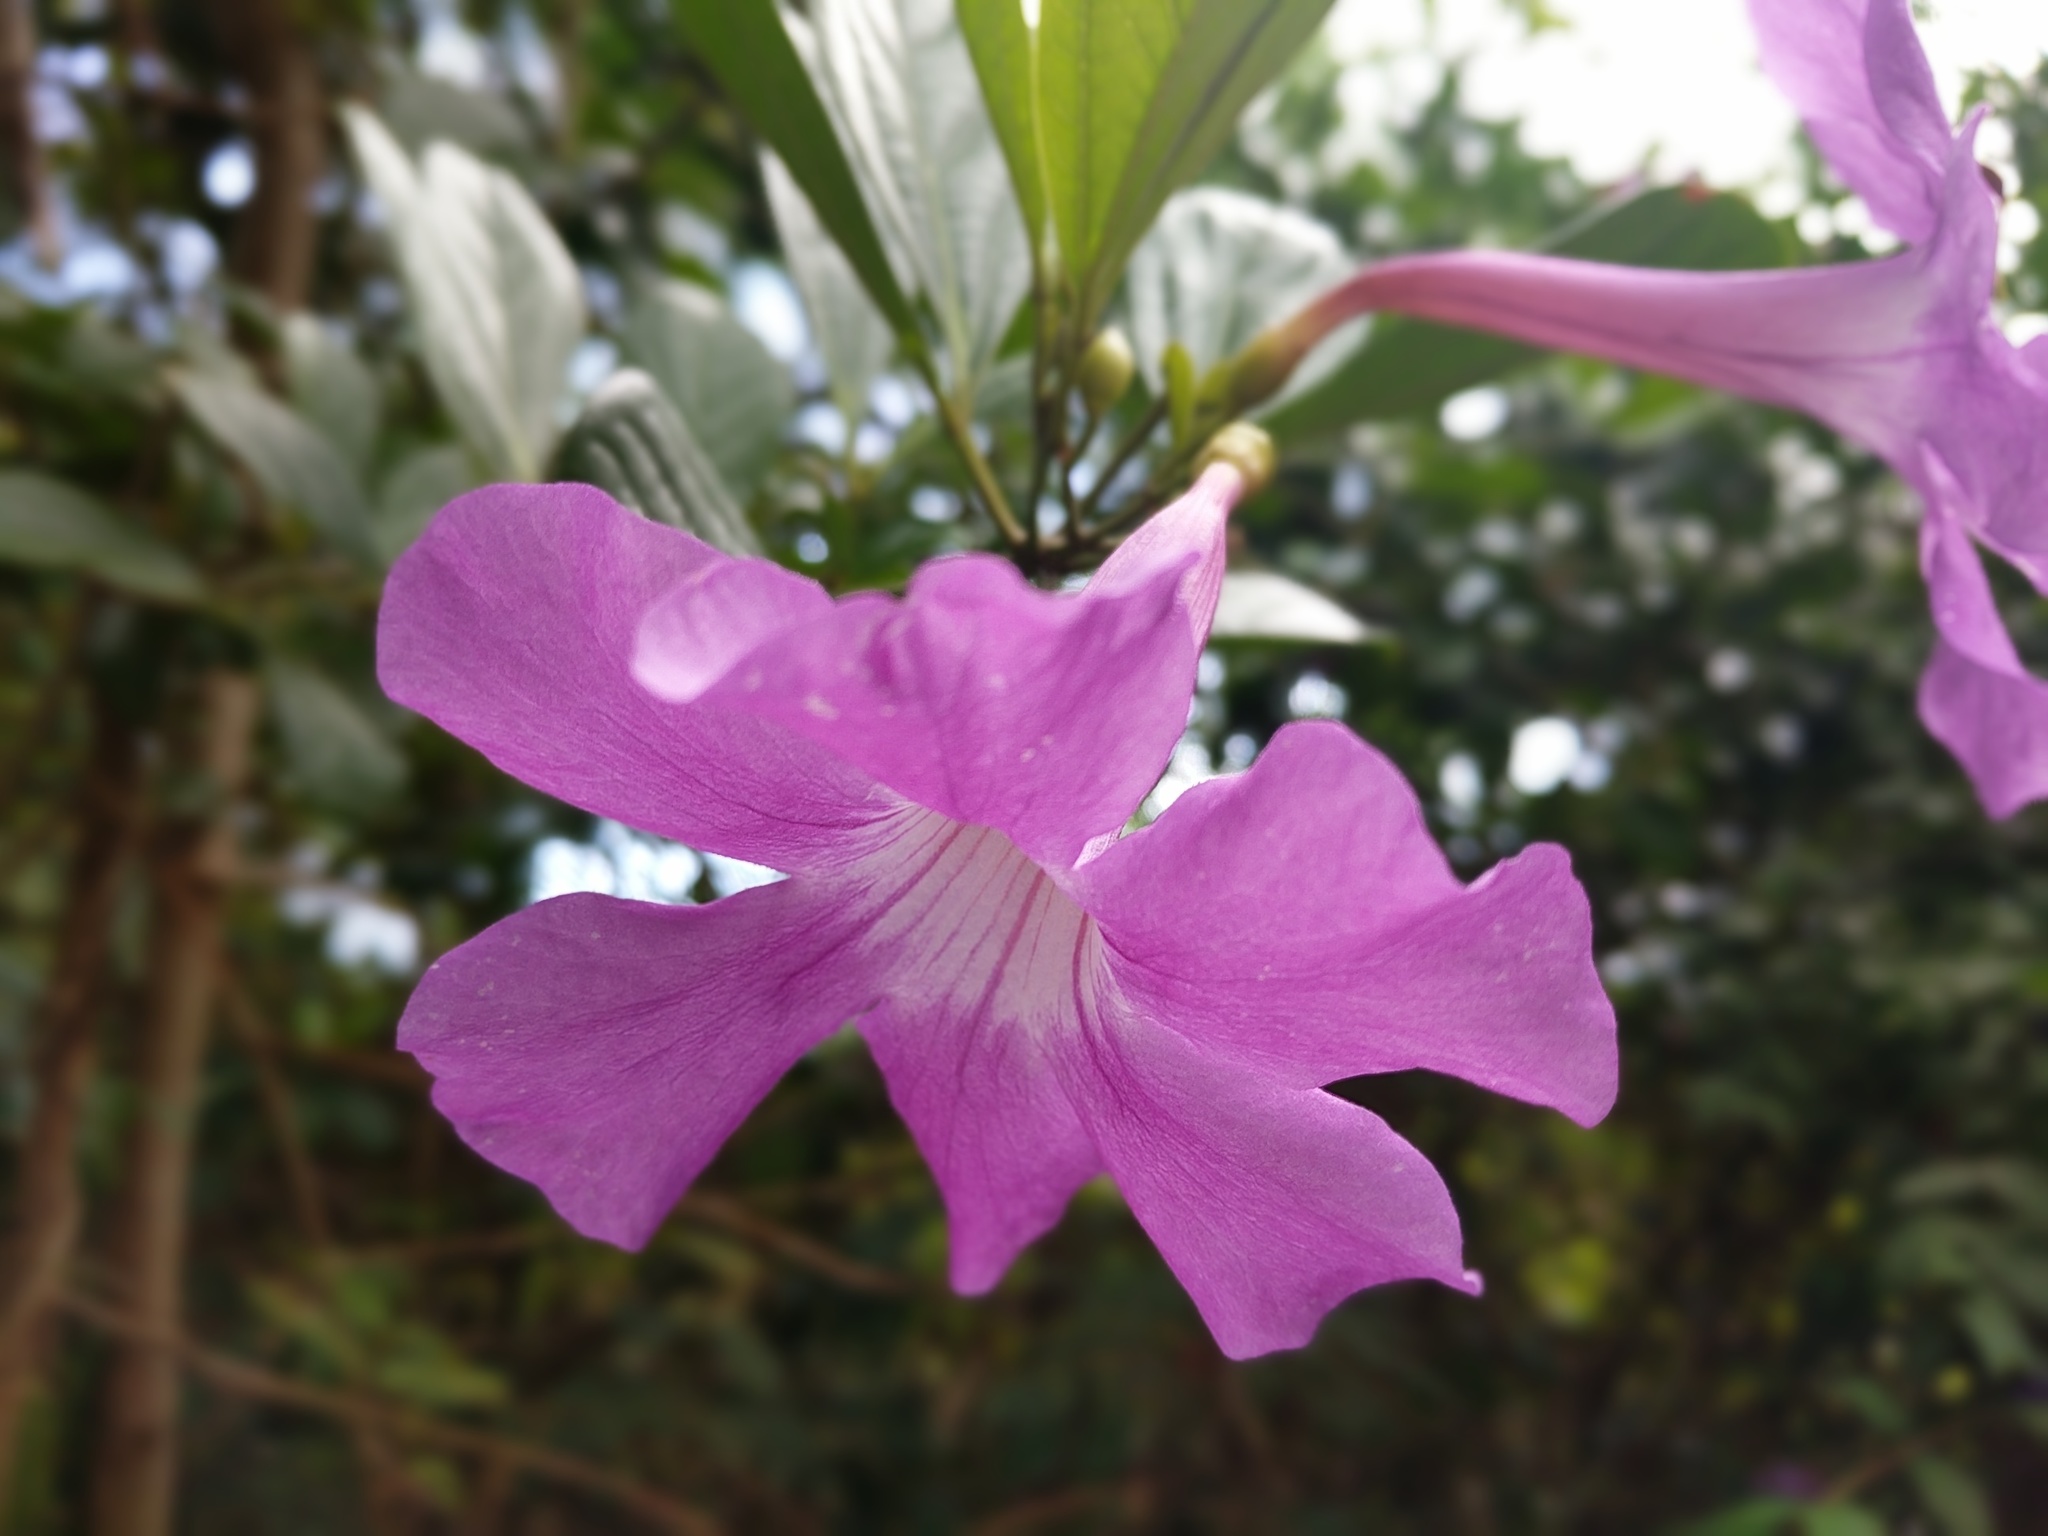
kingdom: Plantae
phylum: Tracheophyta
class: Magnoliopsida
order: Lamiales
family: Bignoniaceae
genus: Bignonia
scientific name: Bignonia magnifica
